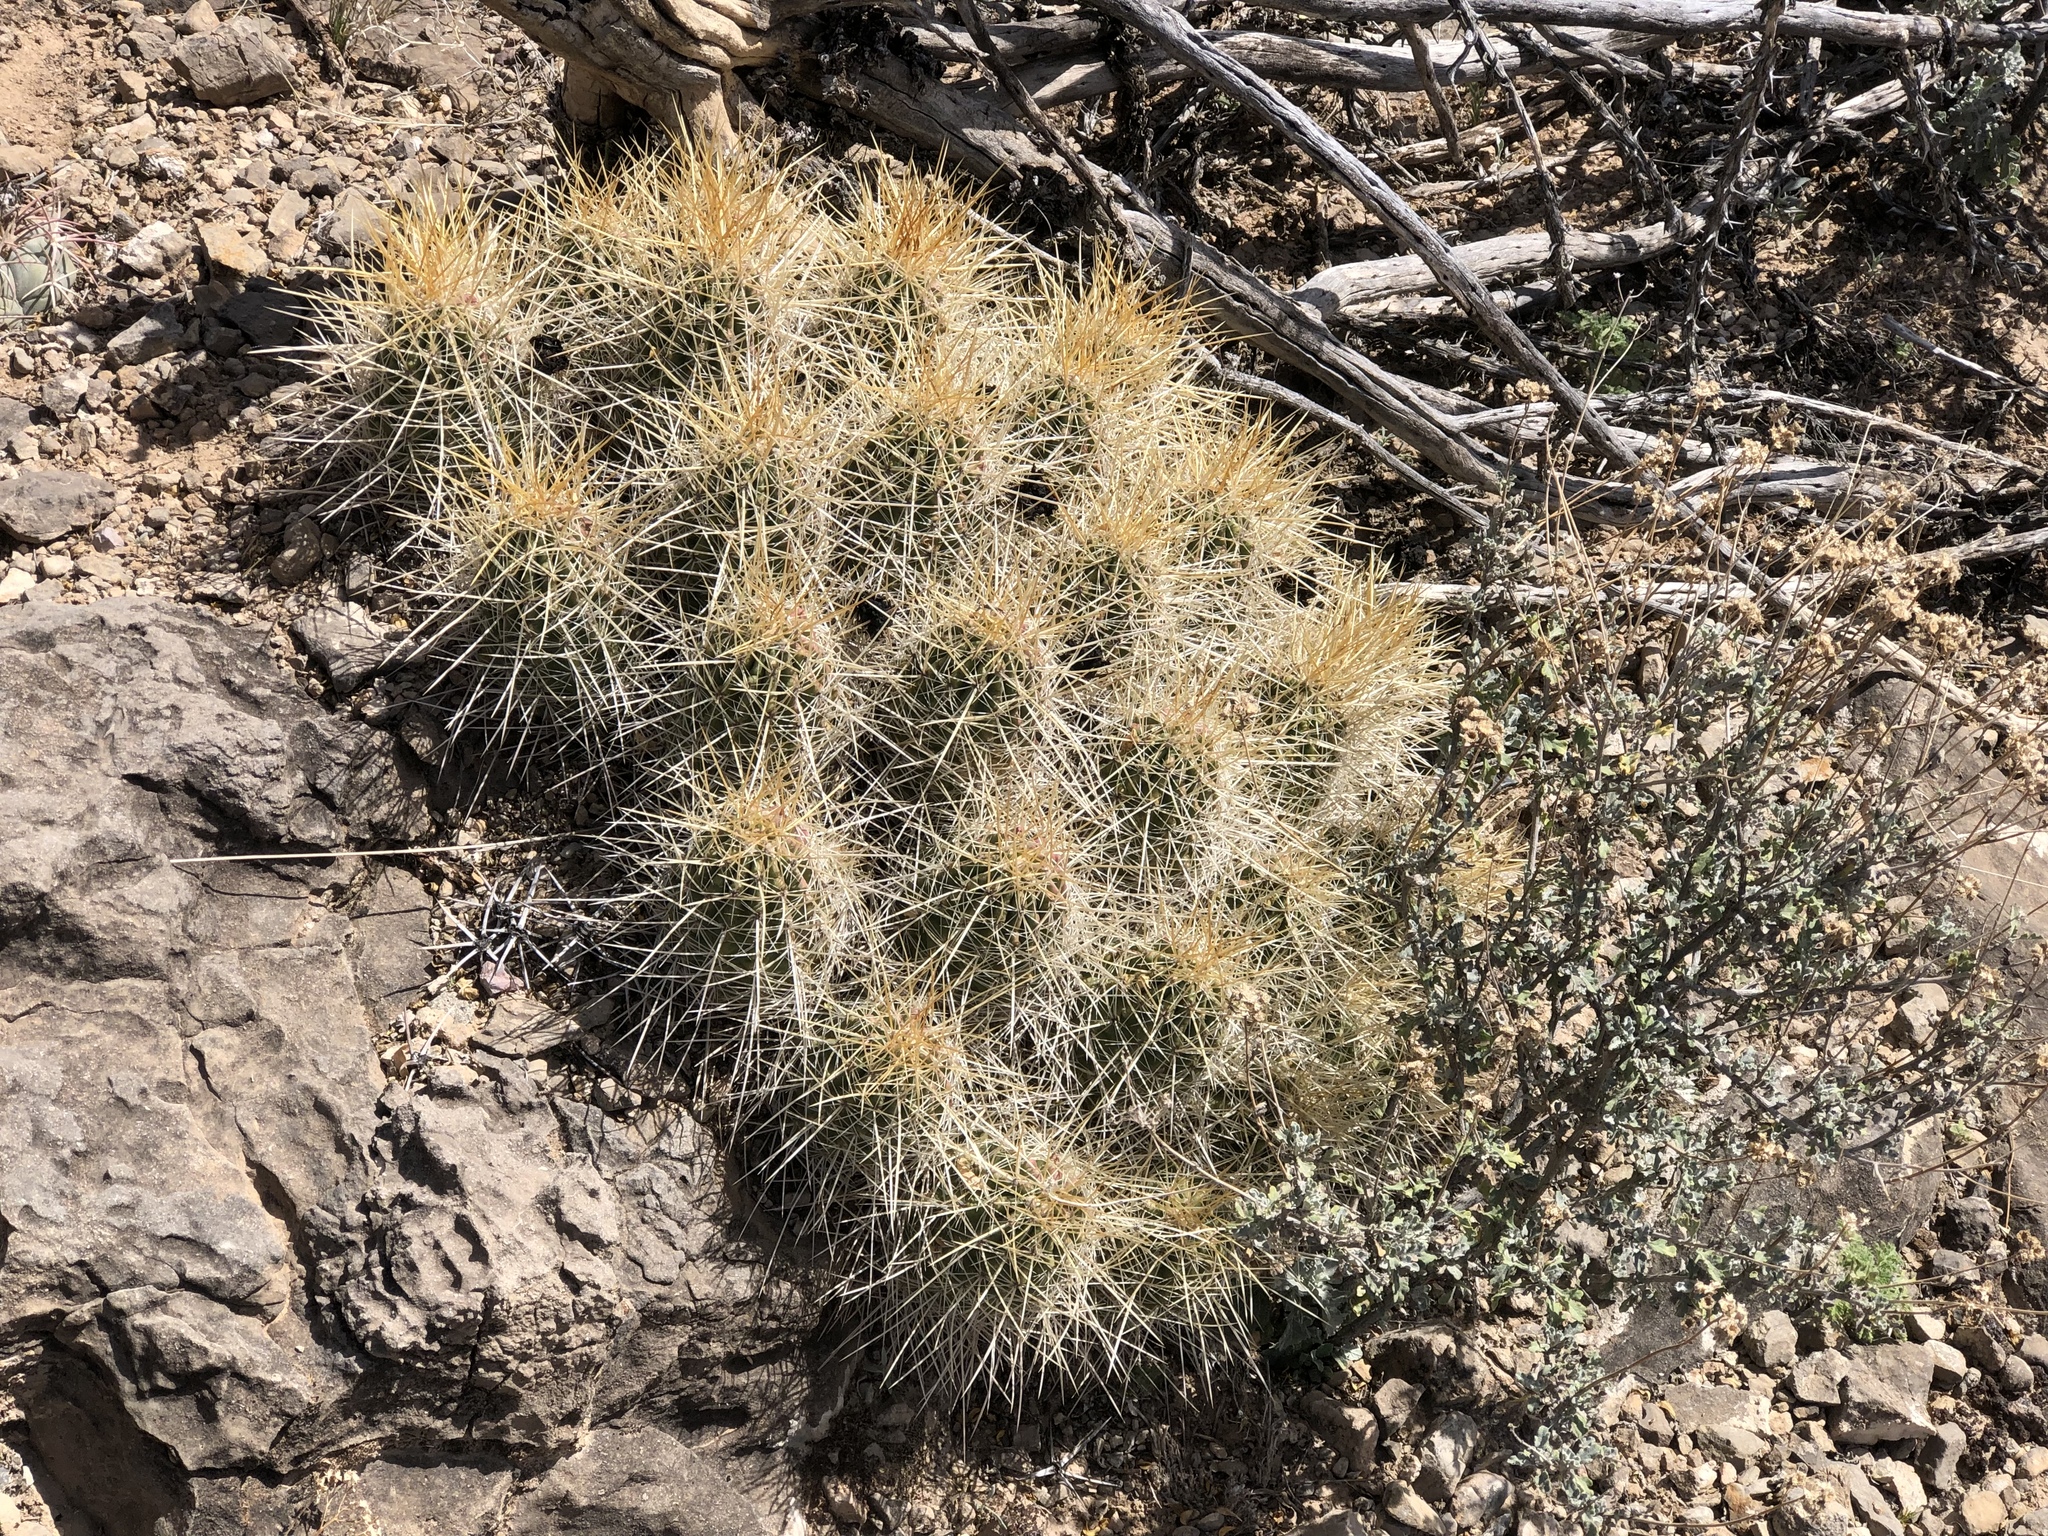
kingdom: Plantae
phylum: Tracheophyta
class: Magnoliopsida
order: Caryophyllales
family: Cactaceae
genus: Echinocereus
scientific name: Echinocereus stramineus
